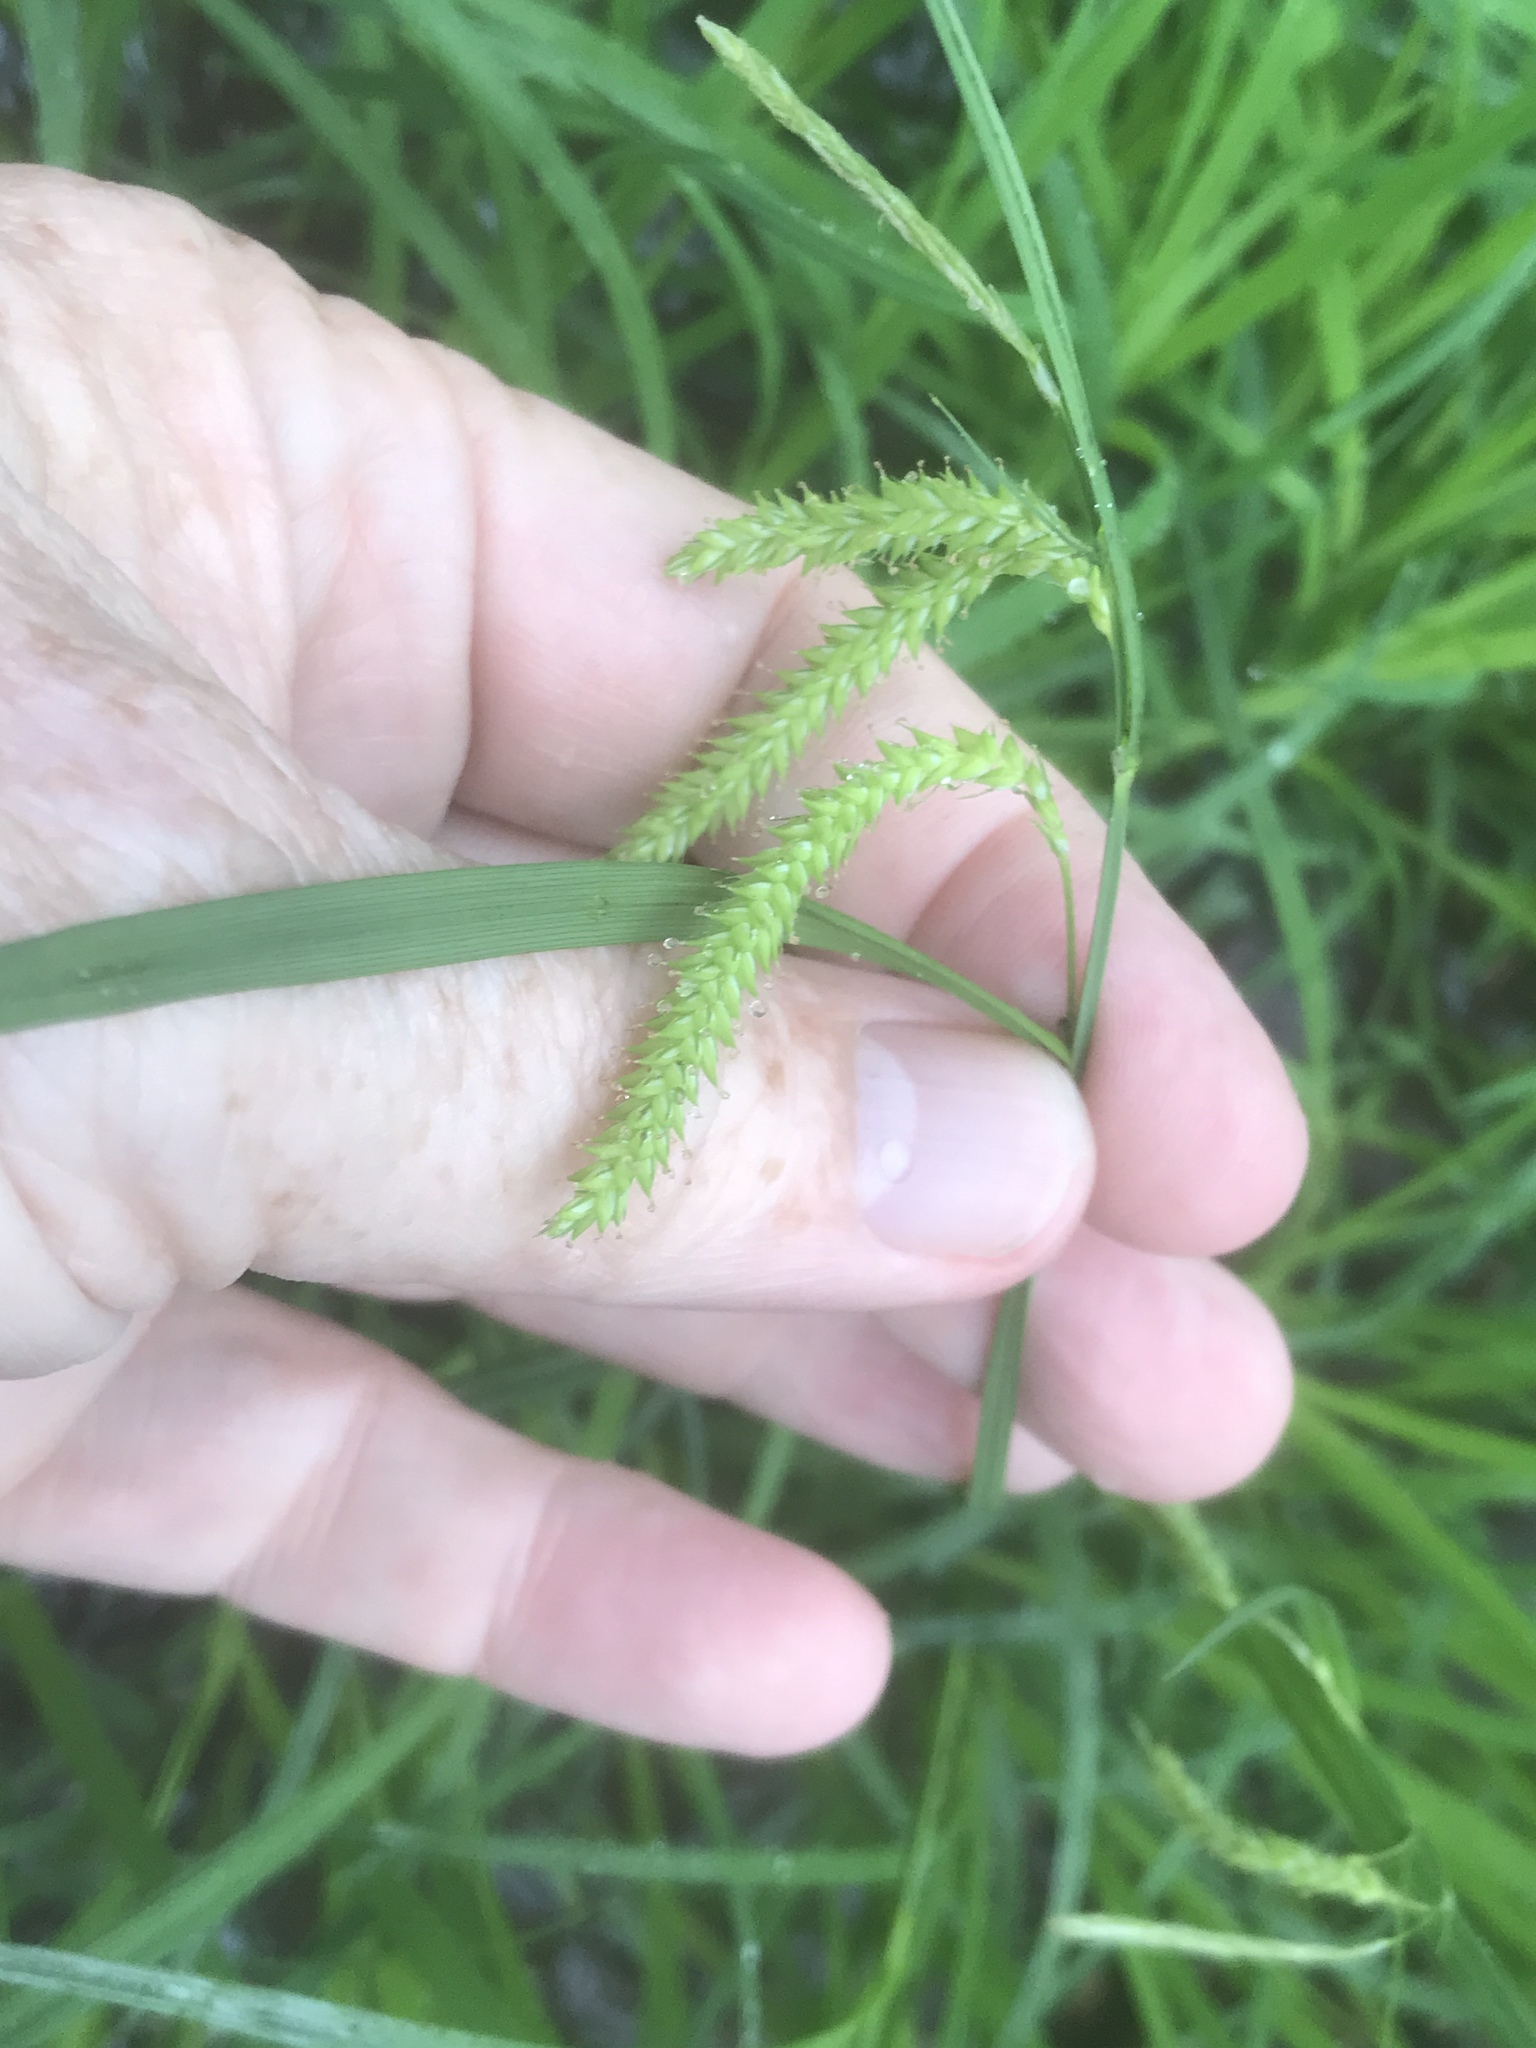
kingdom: Plantae
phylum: Tracheophyta
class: Liliopsida
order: Poales
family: Cyperaceae
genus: Carex
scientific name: Carex prasina
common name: Drooping sedge
